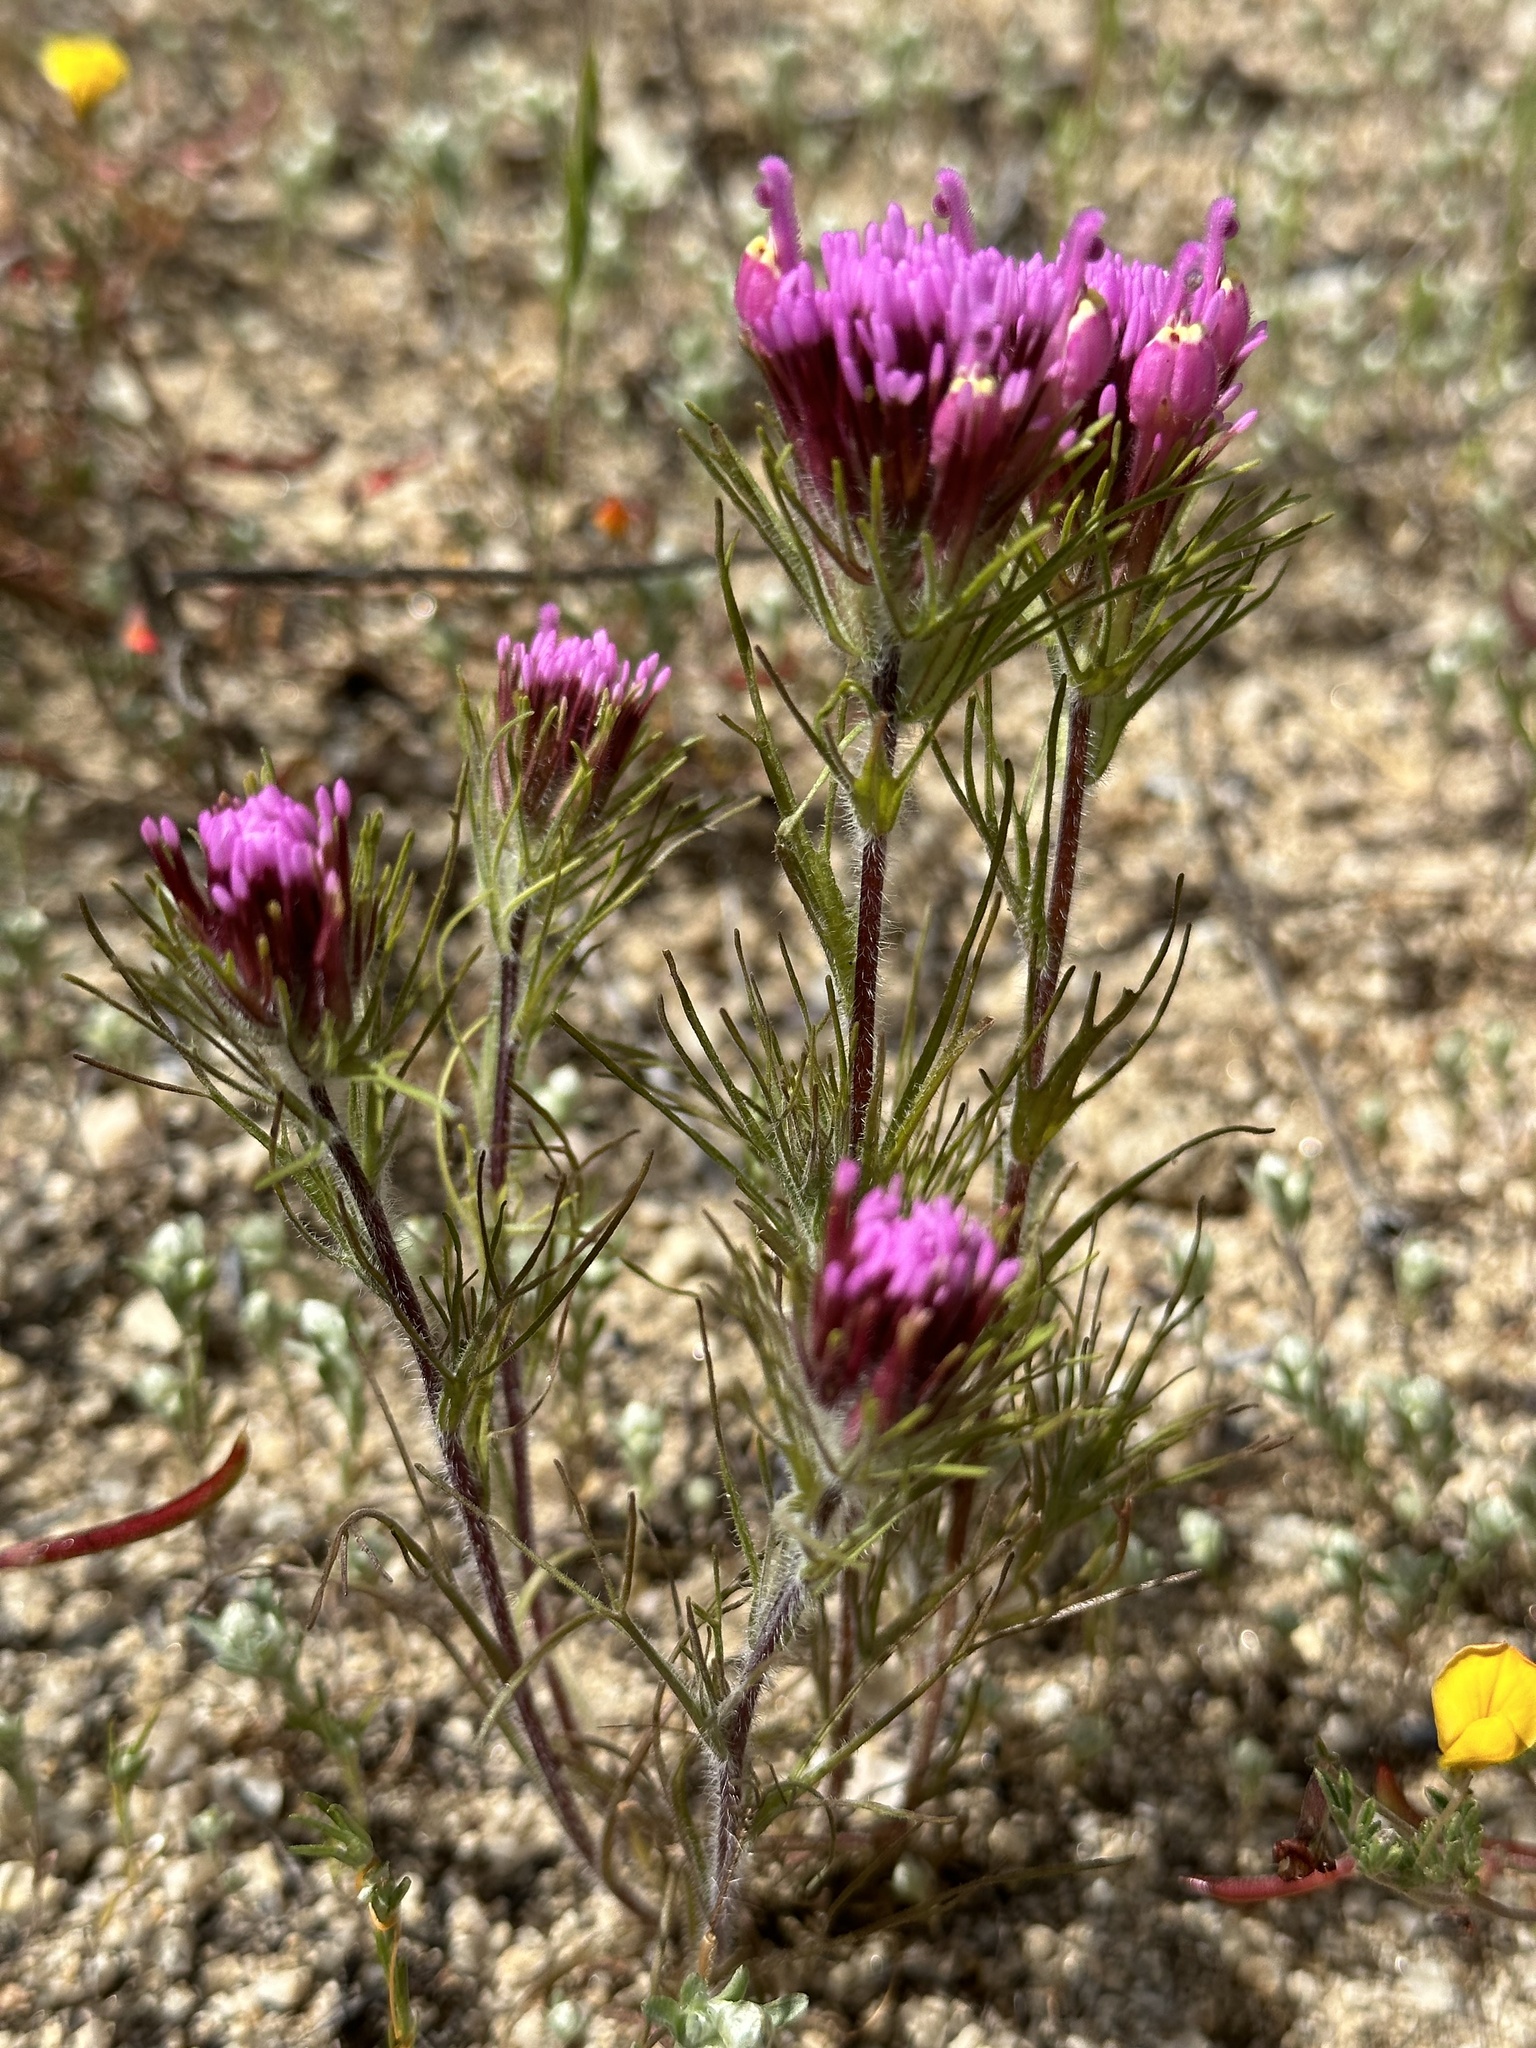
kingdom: Plantae
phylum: Tracheophyta
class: Magnoliopsida
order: Lamiales
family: Orobanchaceae
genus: Castilleja
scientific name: Castilleja exserta
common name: Purple owl-clover
